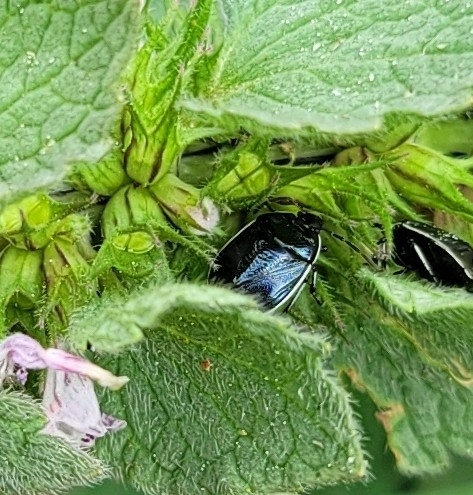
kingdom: Animalia
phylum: Arthropoda
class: Insecta
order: Hemiptera
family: Cydnidae
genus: Sehirus
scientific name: Sehirus cinctus
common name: White-margined burrower bug
